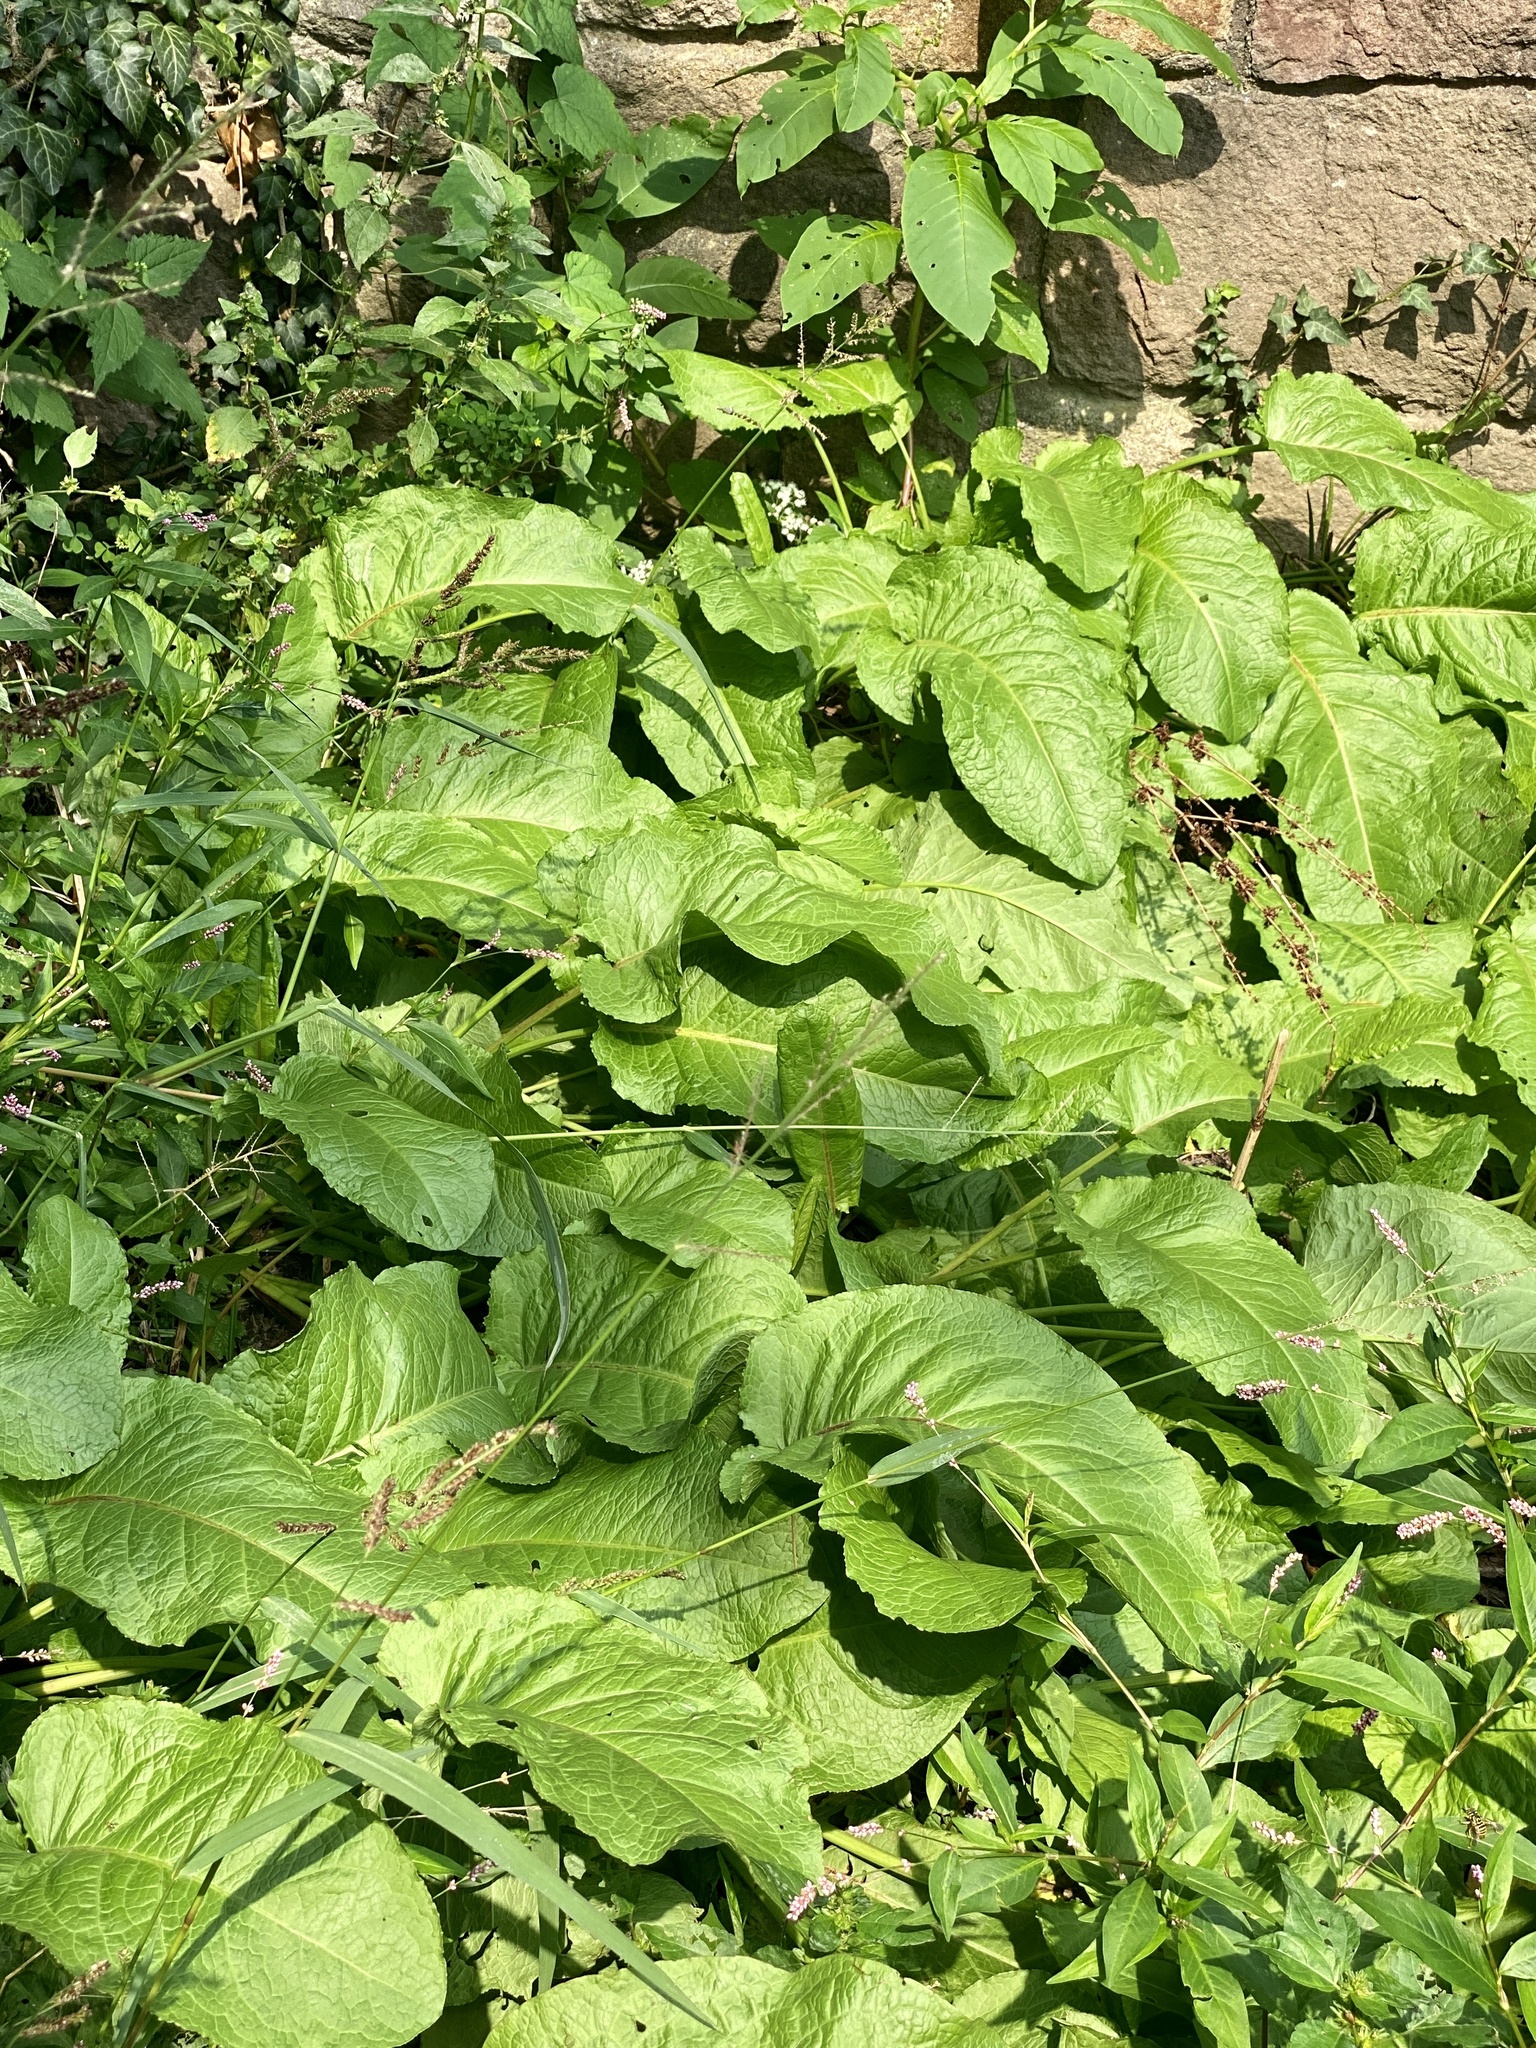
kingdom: Plantae
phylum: Tracheophyta
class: Magnoliopsida
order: Caryophyllales
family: Polygonaceae
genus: Rumex
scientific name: Rumex obtusifolius
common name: Bitter dock
